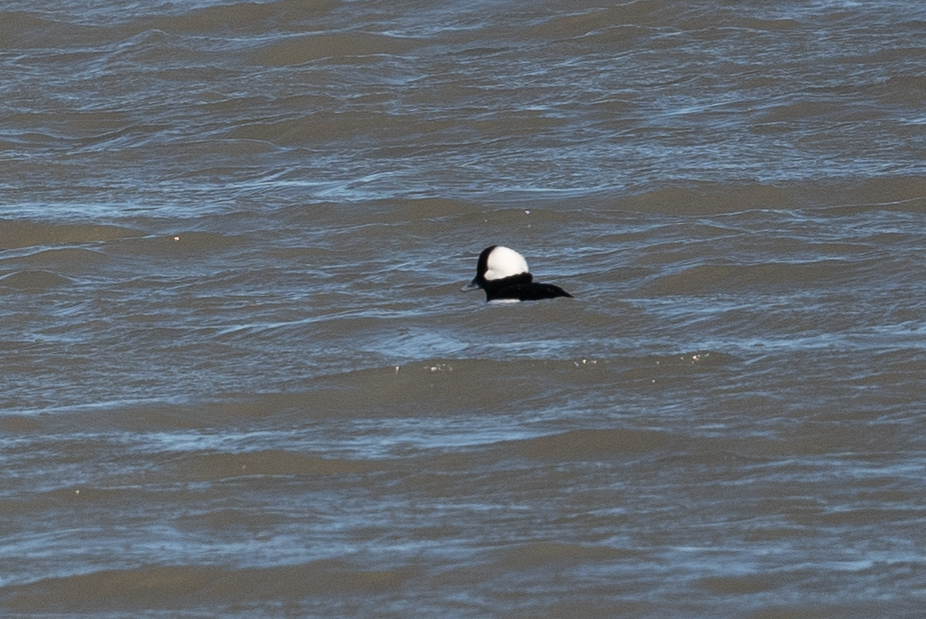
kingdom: Animalia
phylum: Chordata
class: Aves
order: Anseriformes
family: Anatidae
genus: Bucephala
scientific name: Bucephala albeola
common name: Bufflehead
